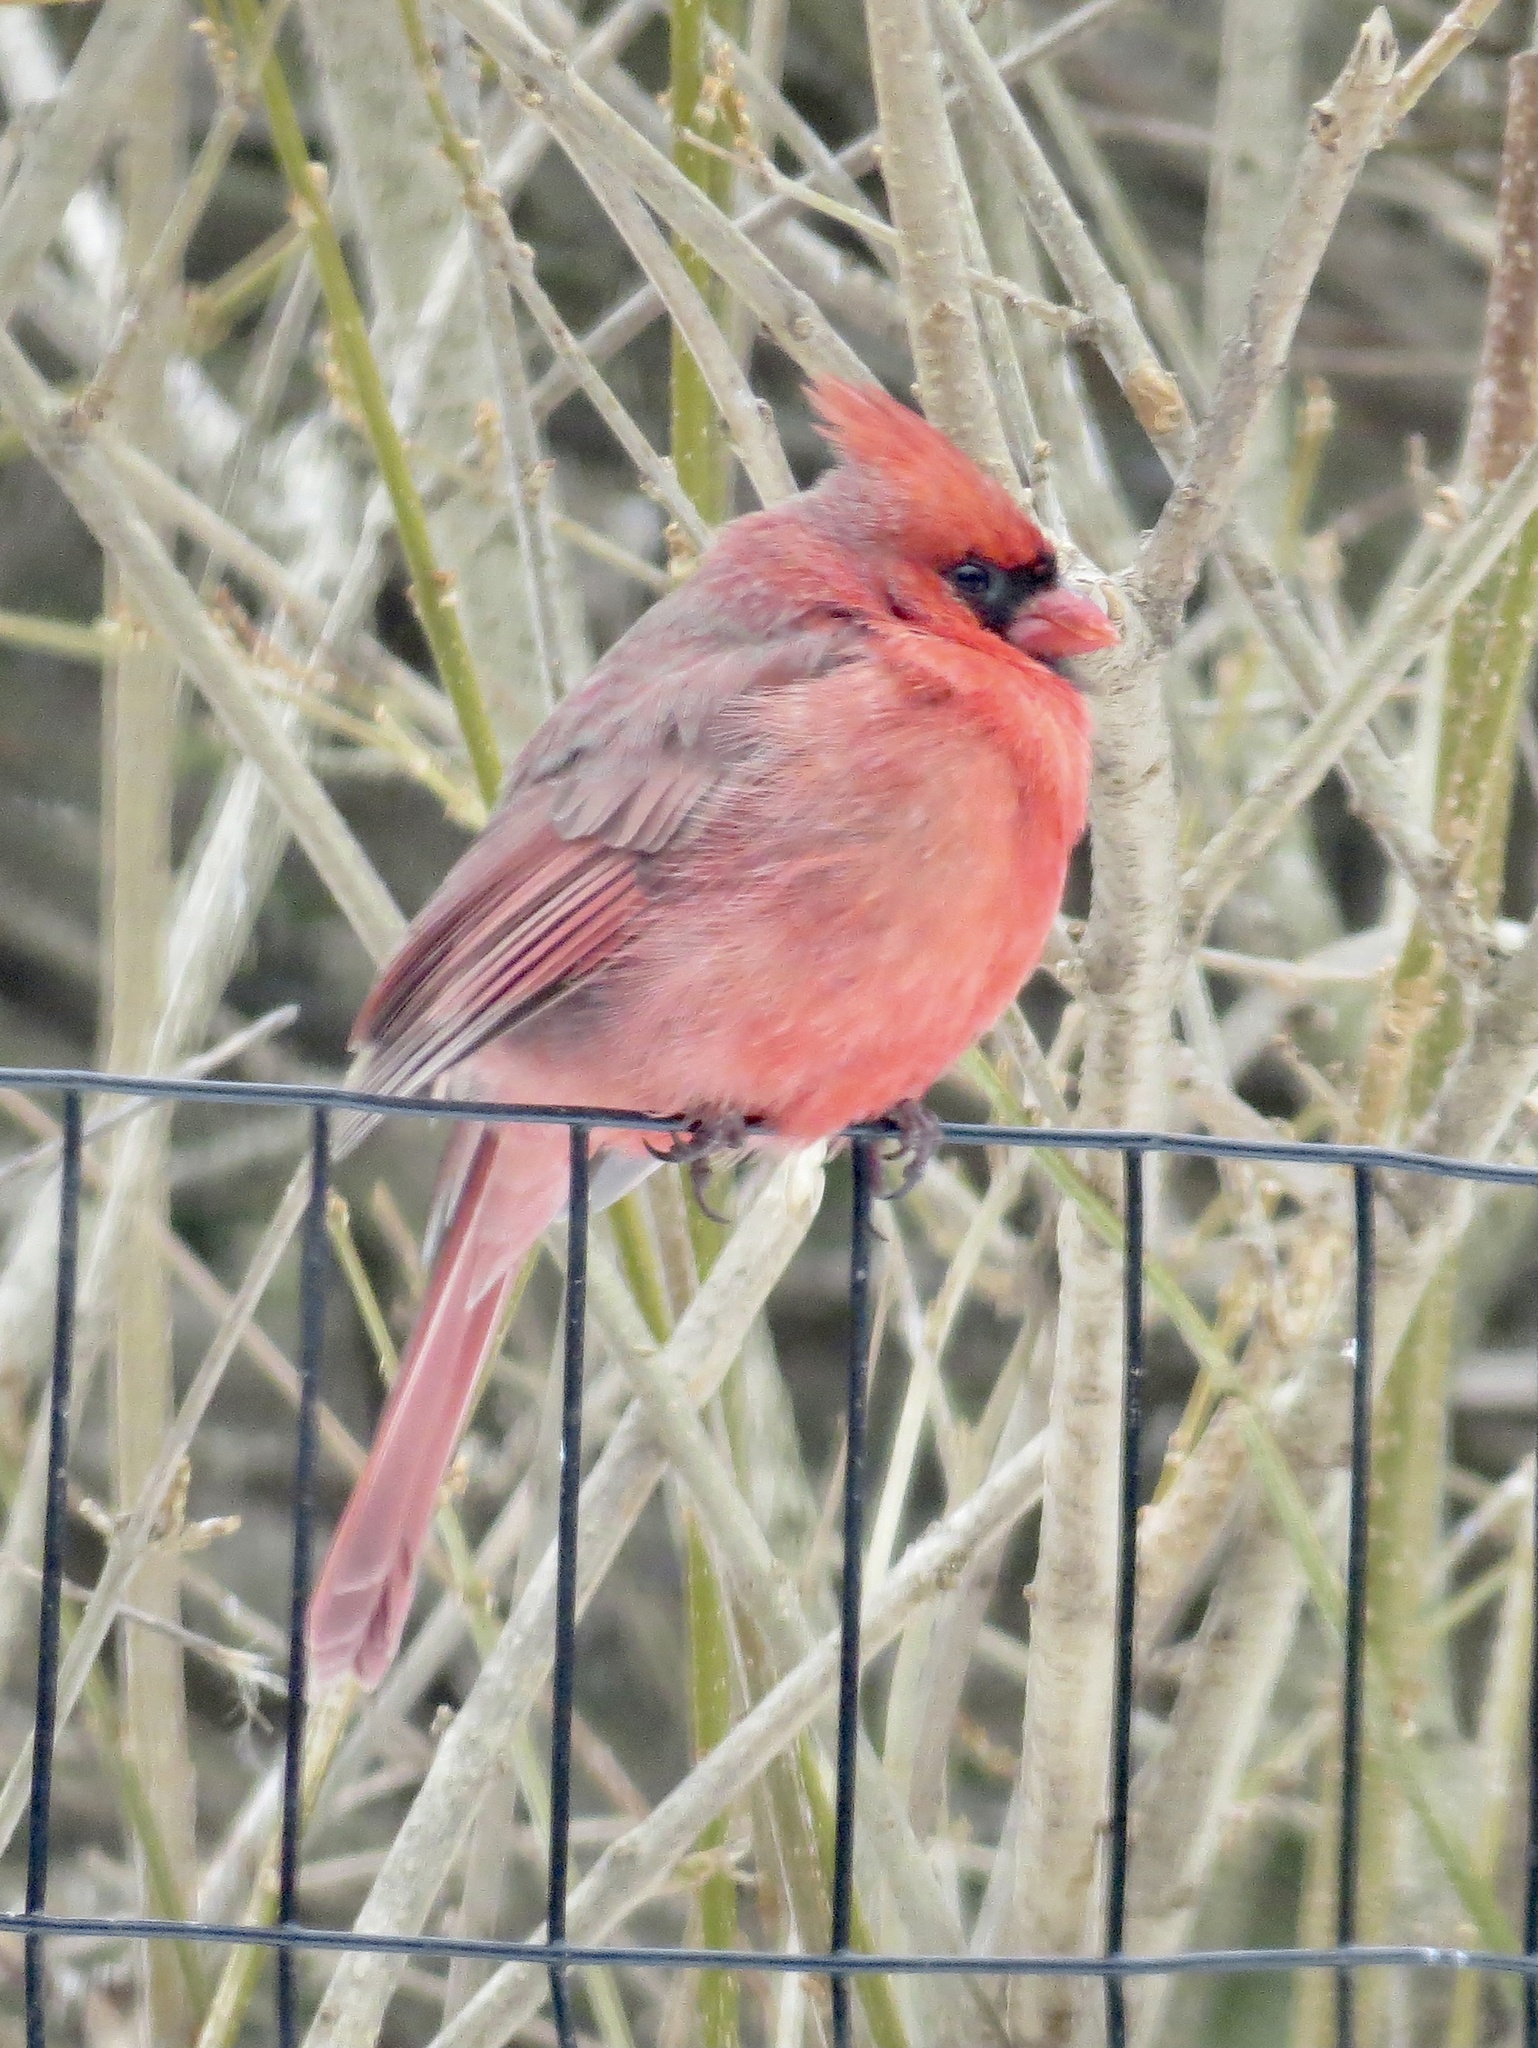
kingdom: Animalia
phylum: Chordata
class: Aves
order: Passeriformes
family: Cardinalidae
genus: Cardinalis
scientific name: Cardinalis cardinalis
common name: Northern cardinal
